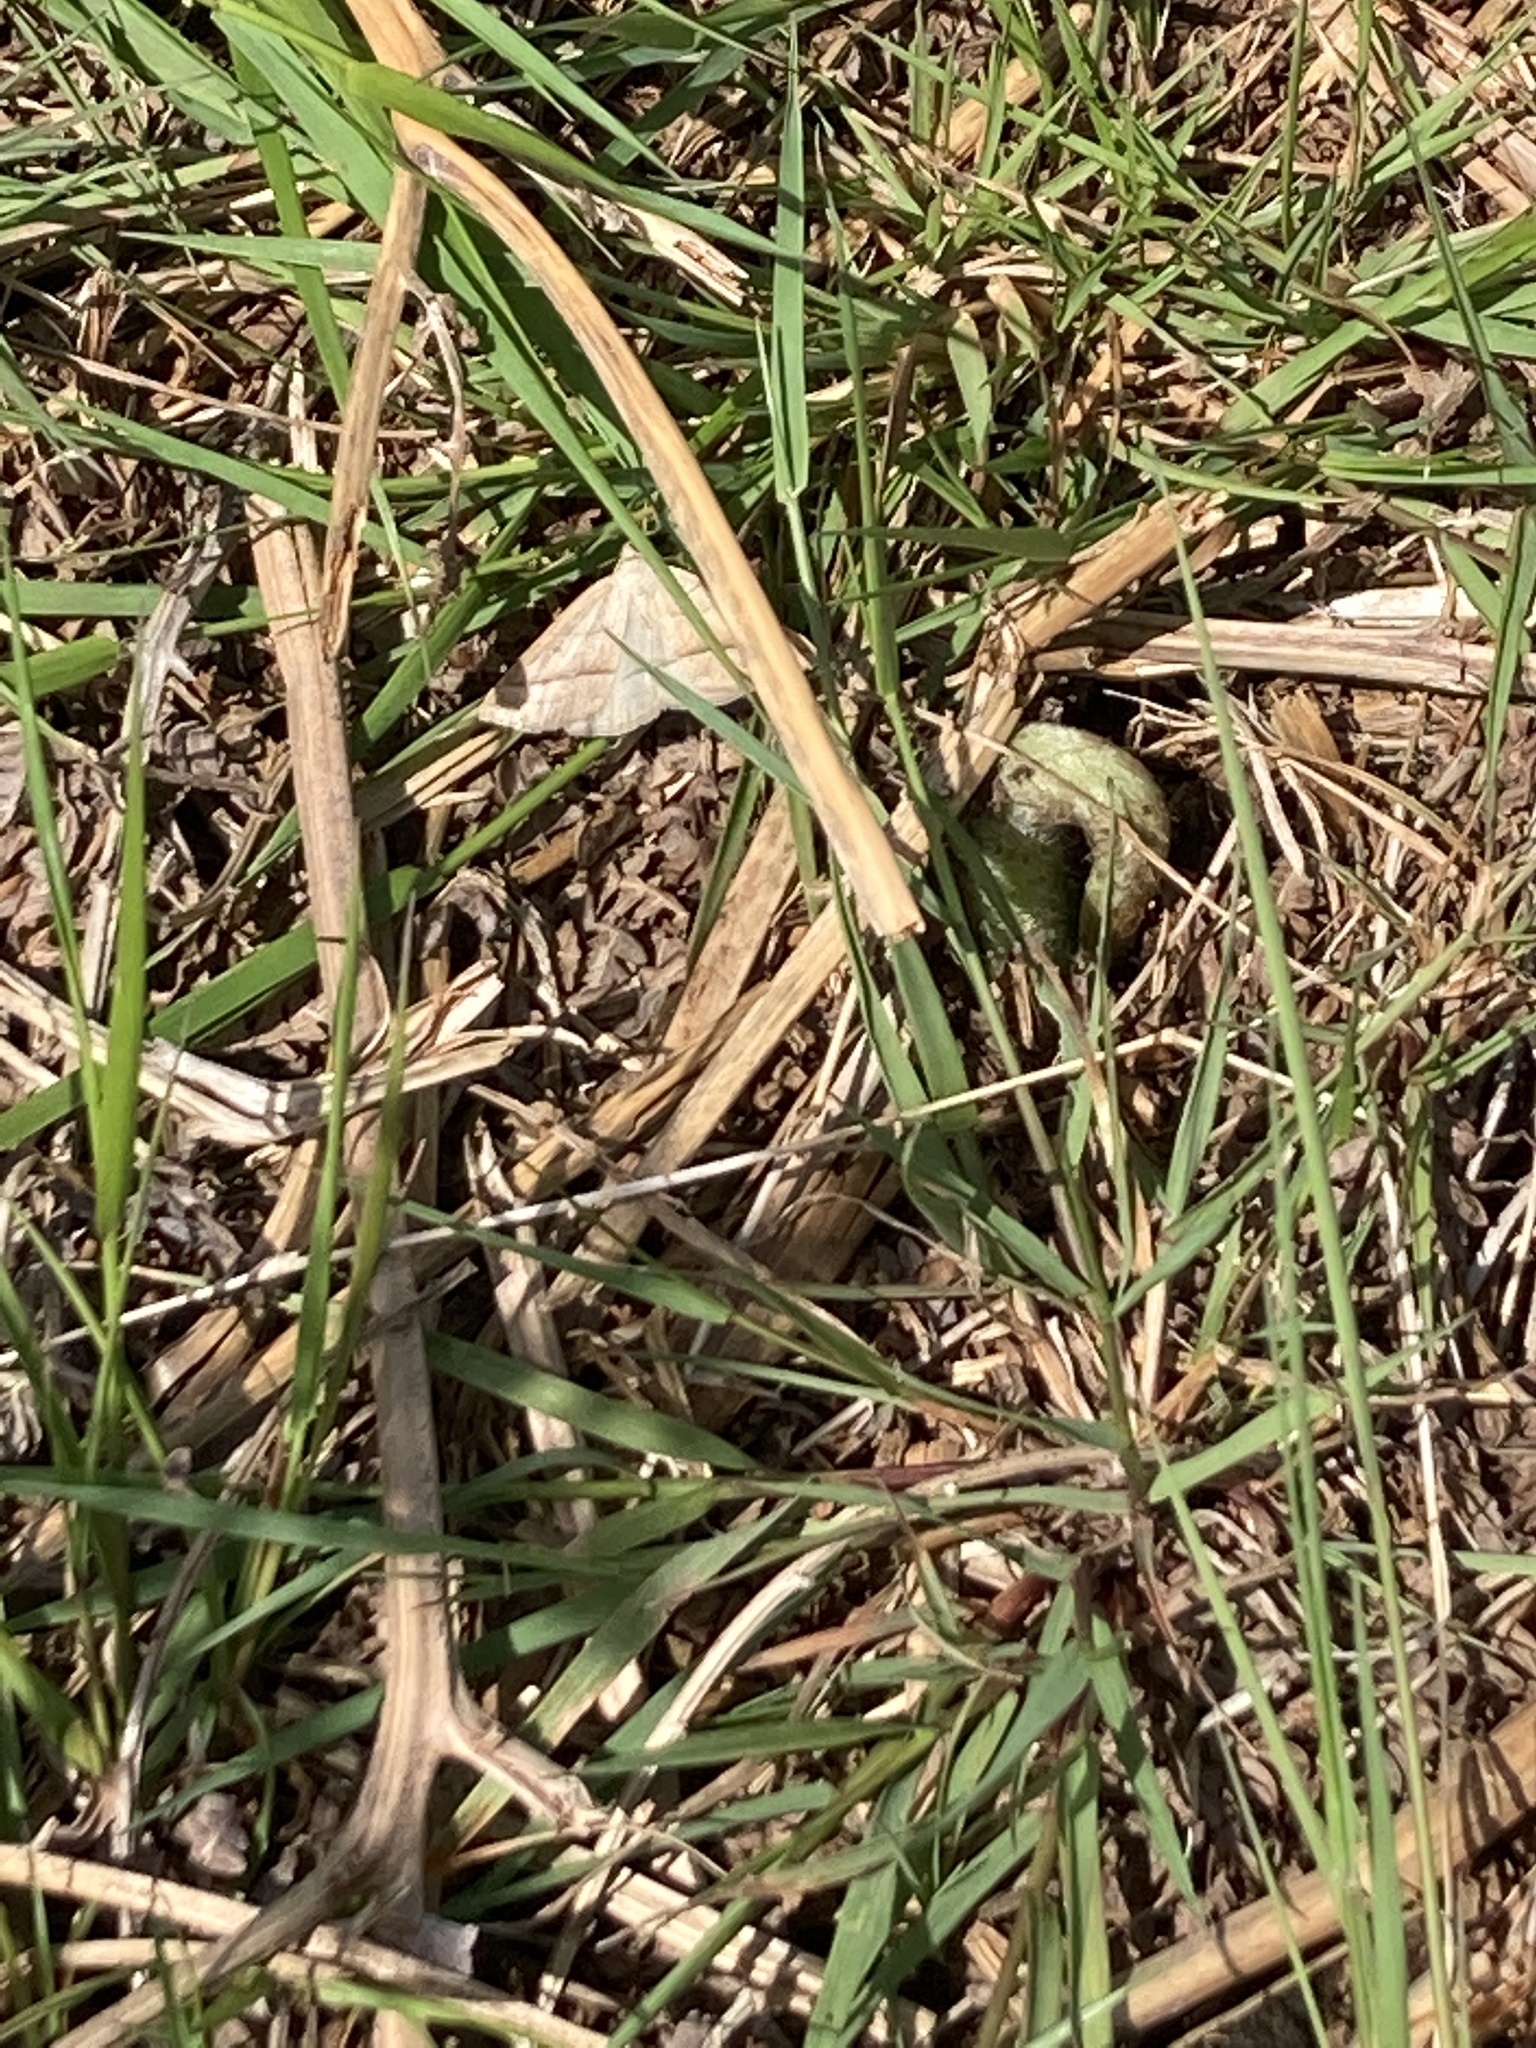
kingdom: Animalia
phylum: Arthropoda
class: Insecta
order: Lepidoptera
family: Pterophoridae
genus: Pterophorus
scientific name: Pterophorus Petrophora chlorosata
